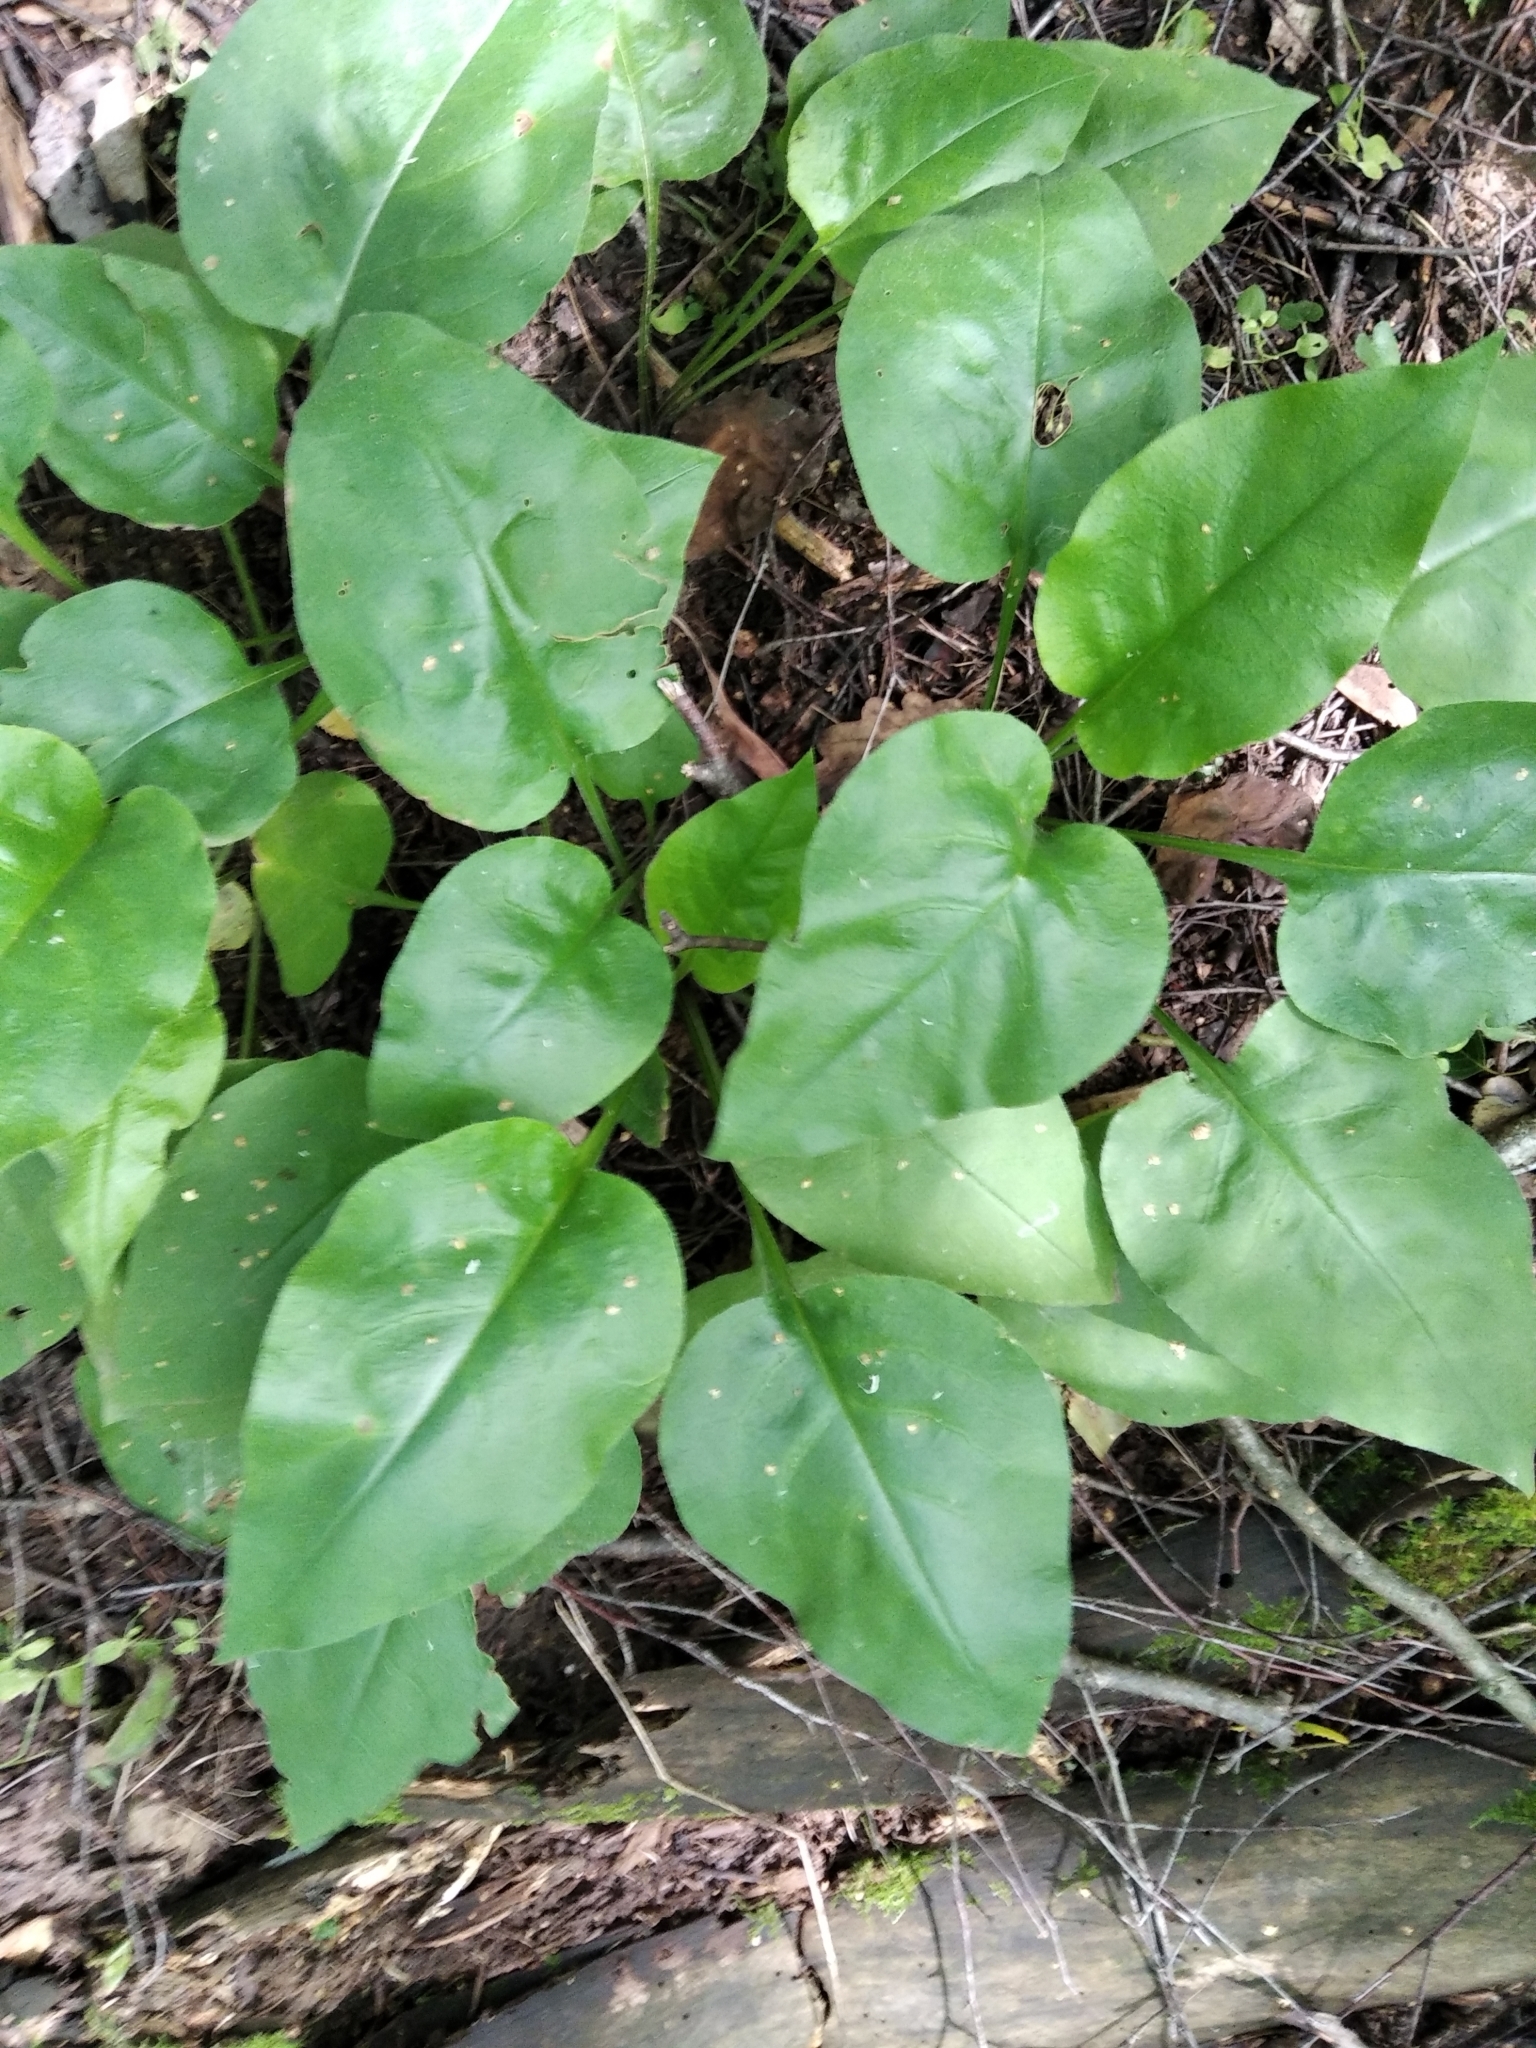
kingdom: Plantae
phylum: Tracheophyta
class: Magnoliopsida
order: Boraginales
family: Boraginaceae
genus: Pulmonaria
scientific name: Pulmonaria obscura
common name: Suffolk lungwort
